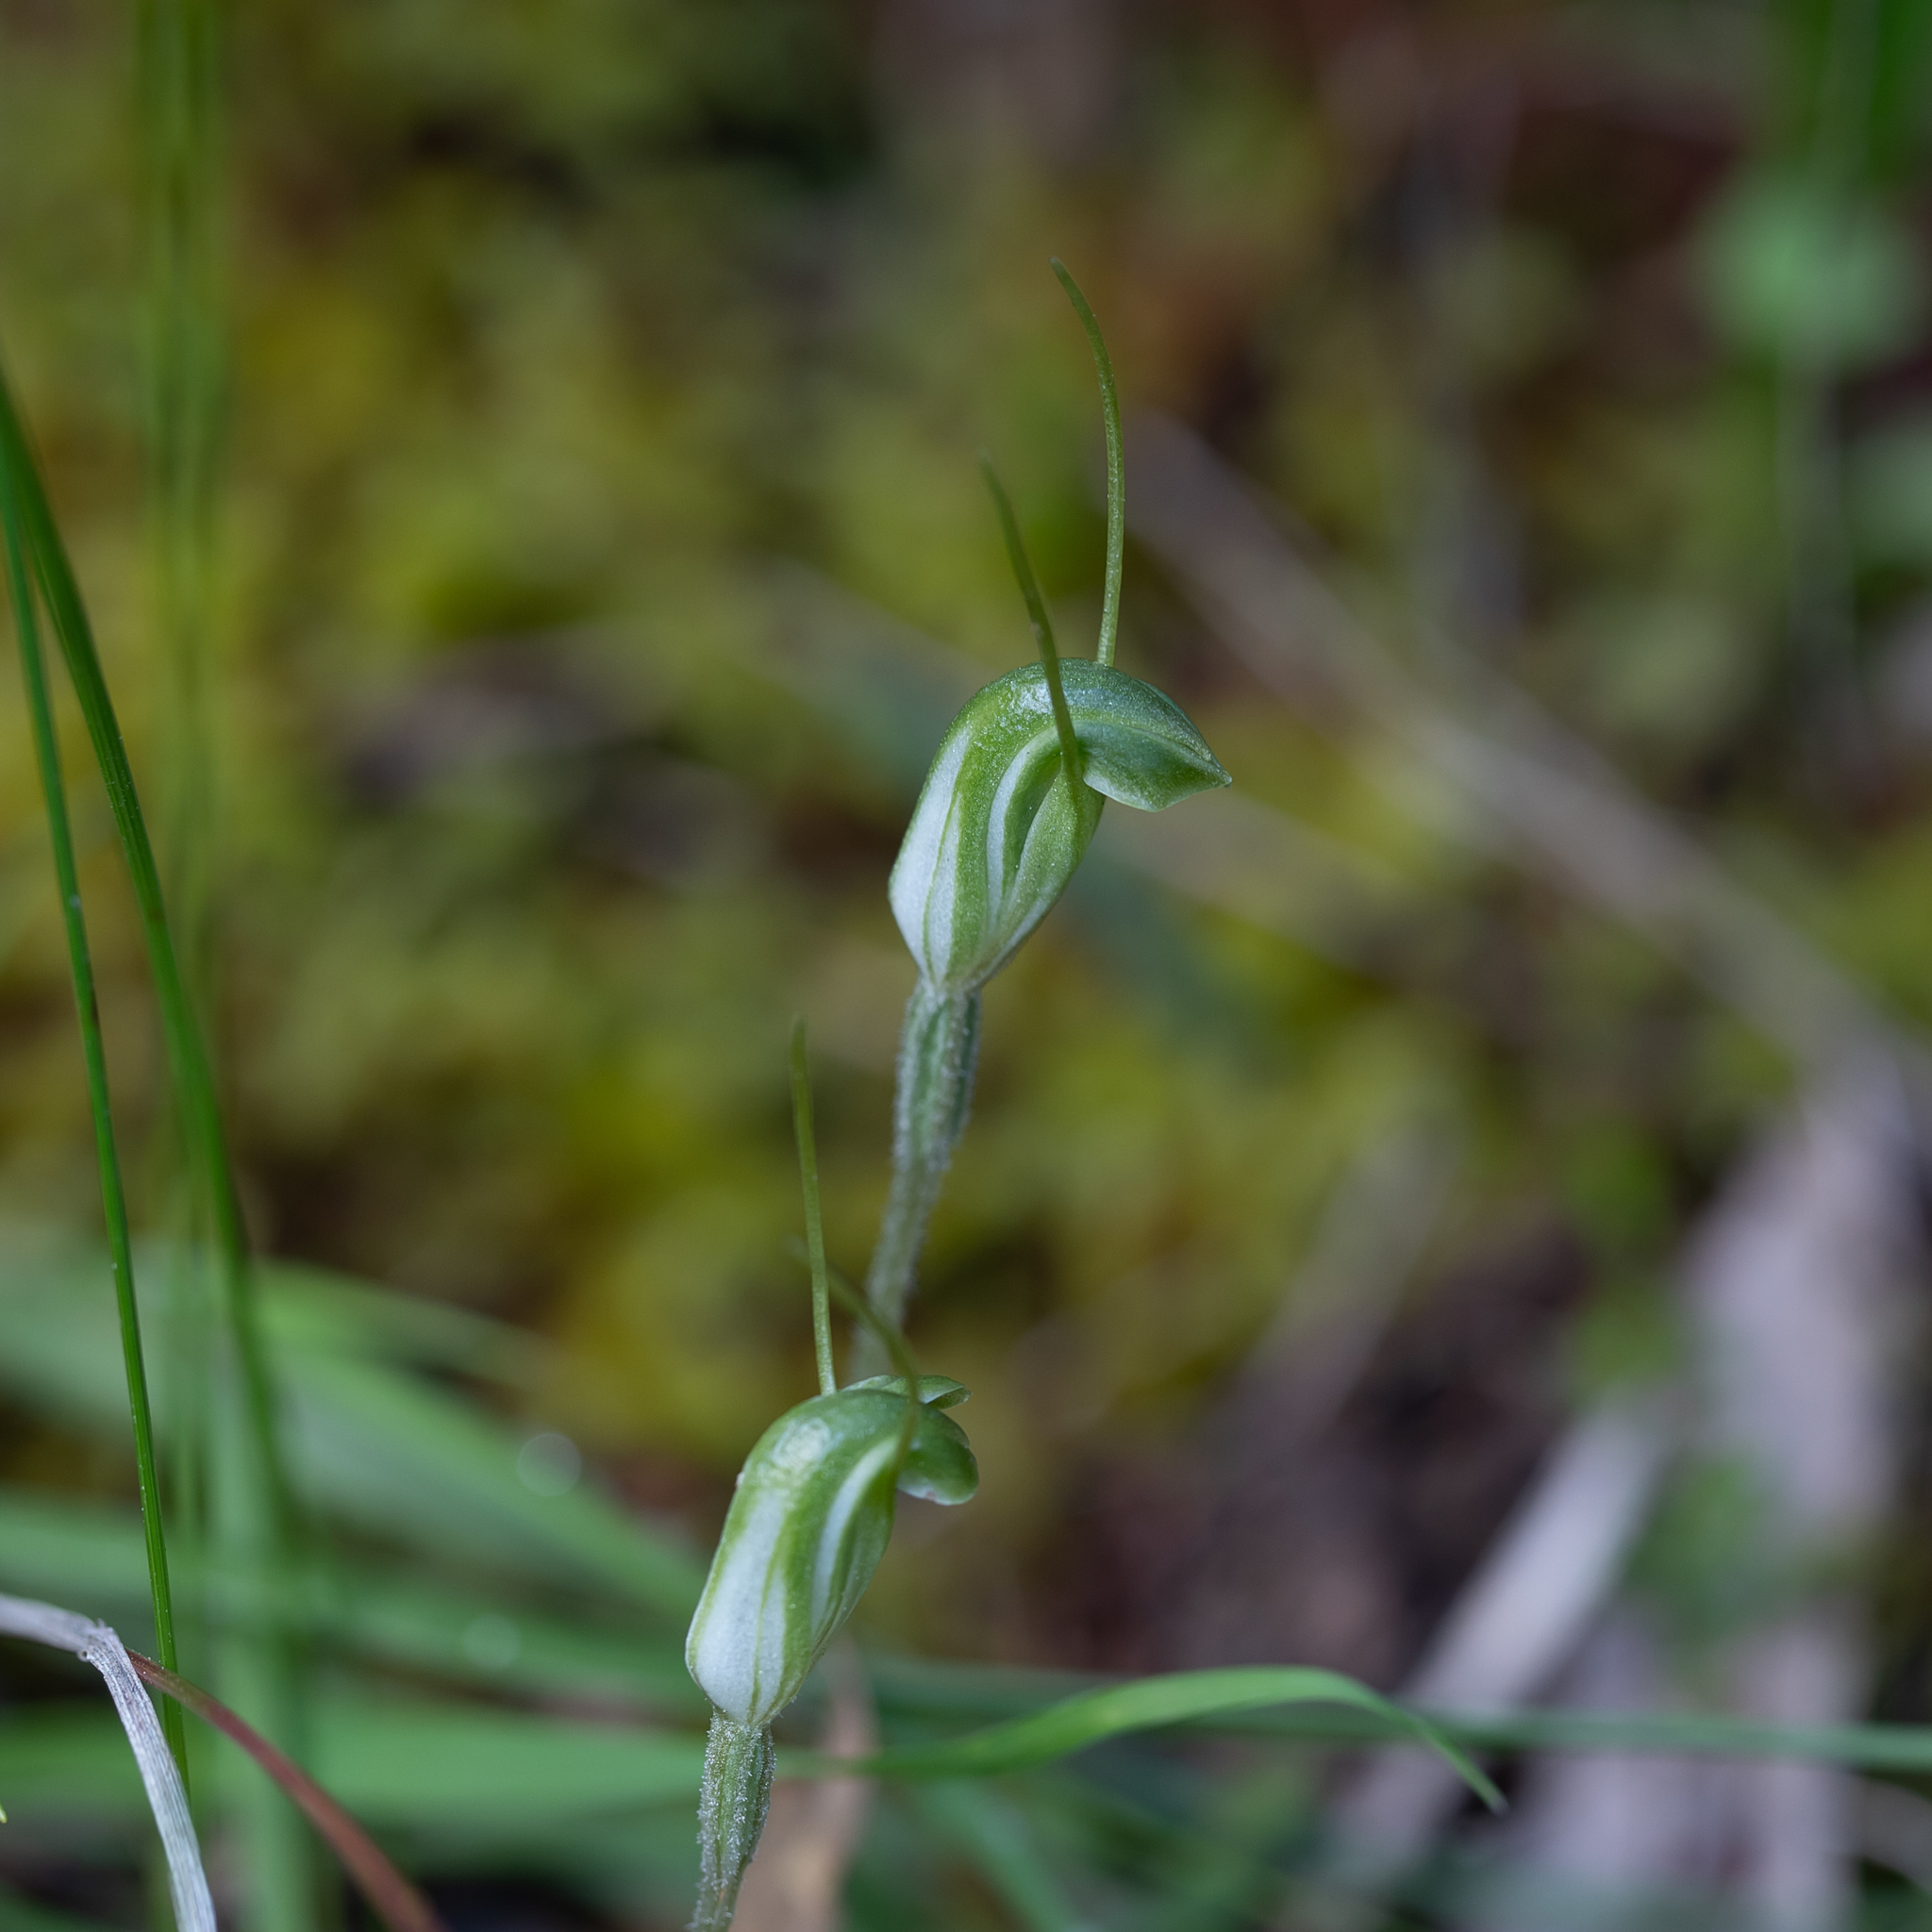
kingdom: Plantae
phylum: Tracheophyta
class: Liliopsida
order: Asparagales
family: Orchidaceae
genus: Pterostylis
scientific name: Pterostylis nana
